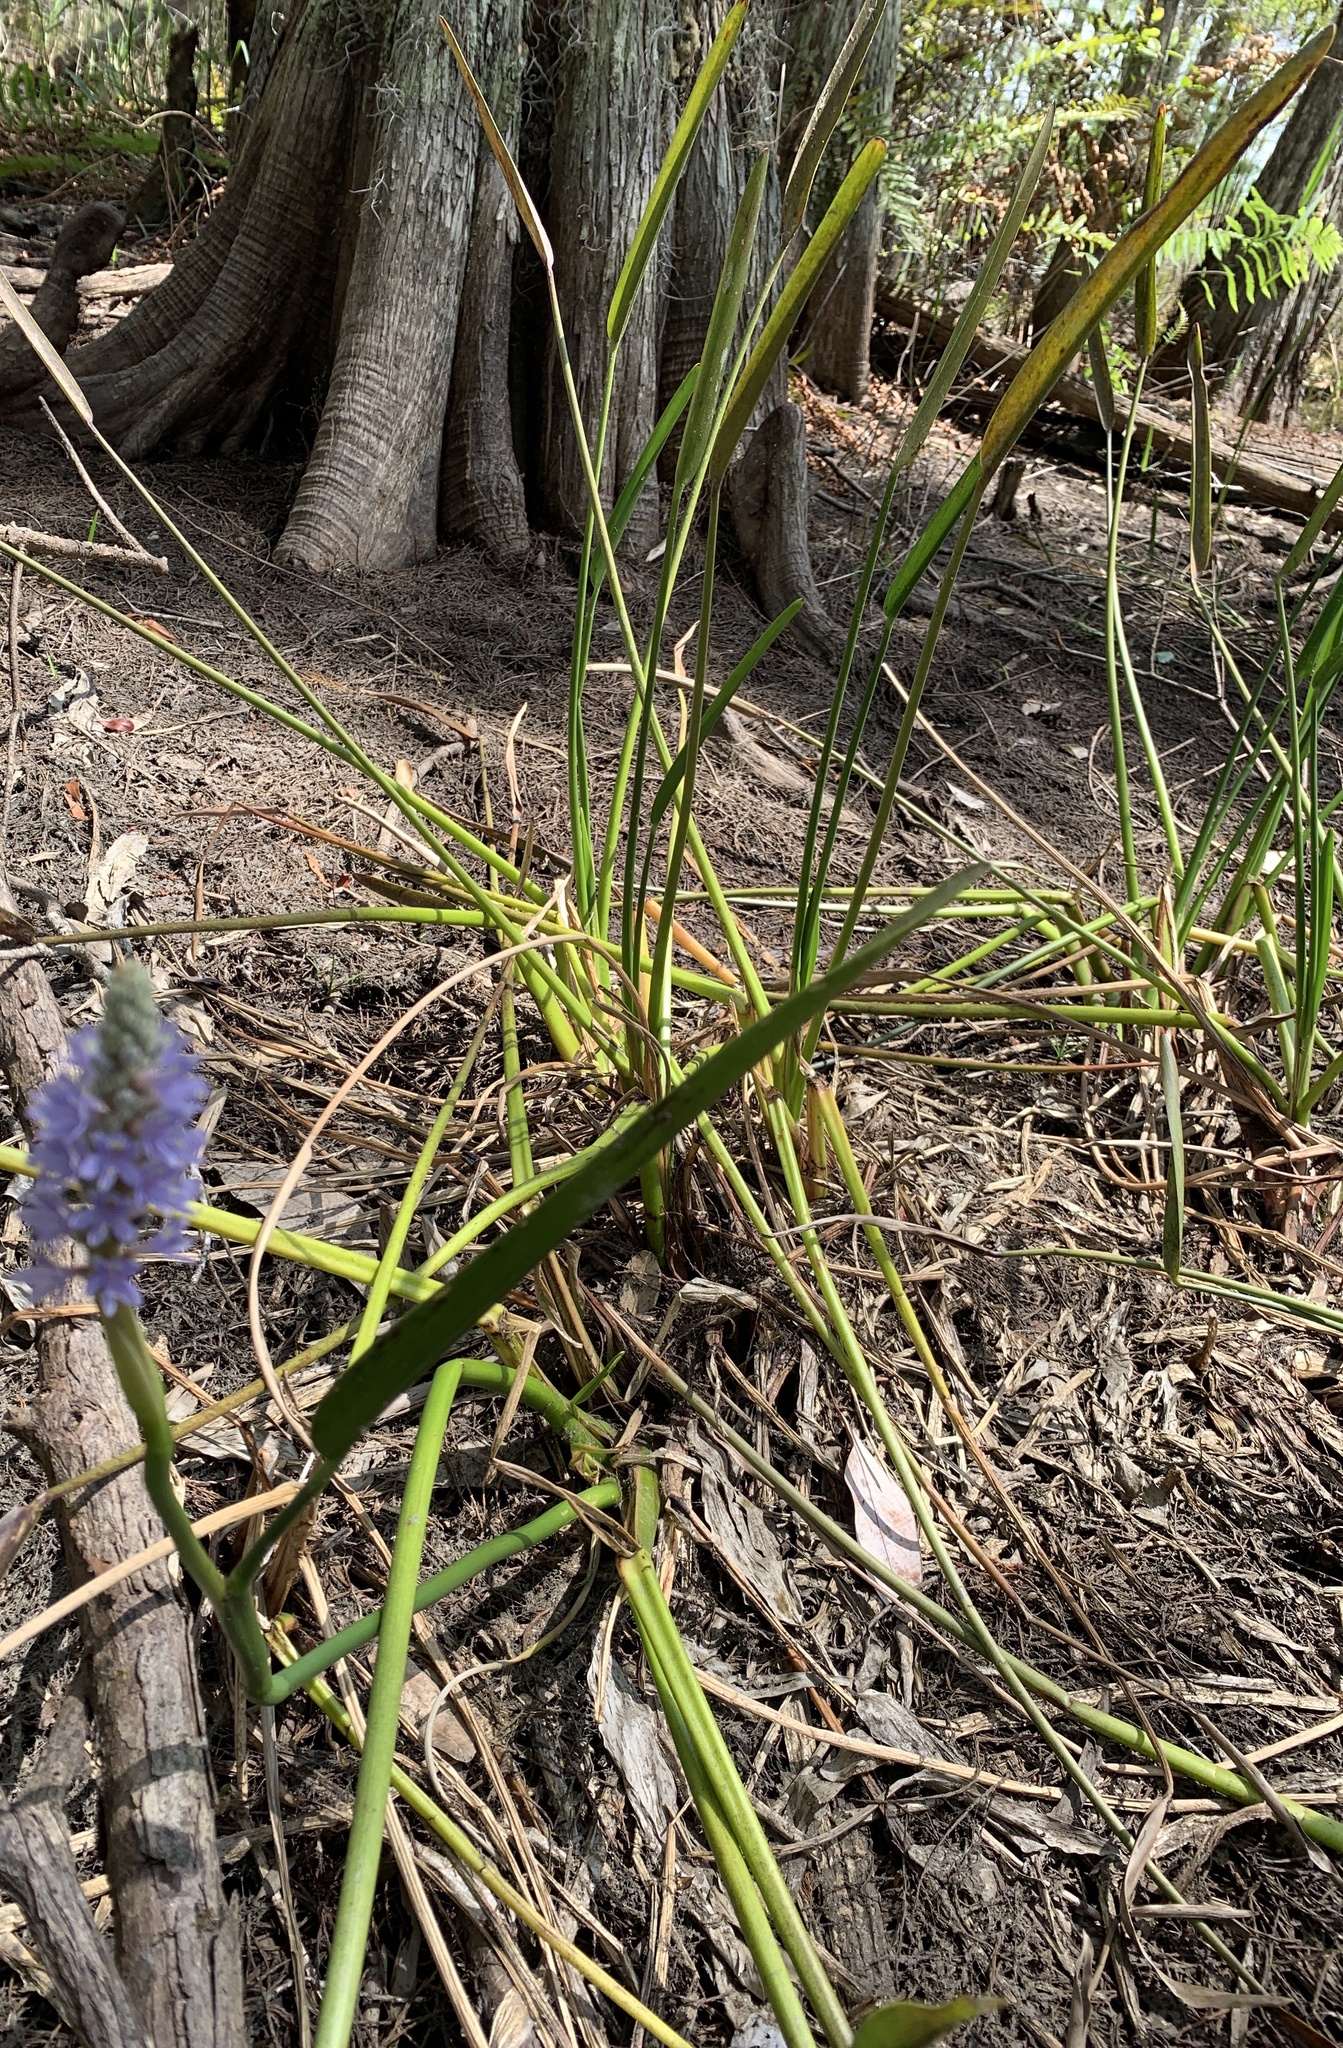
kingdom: Plantae
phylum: Tracheophyta
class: Liliopsida
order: Commelinales
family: Pontederiaceae
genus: Pontederia
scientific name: Pontederia cordata
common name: Pickerelweed
